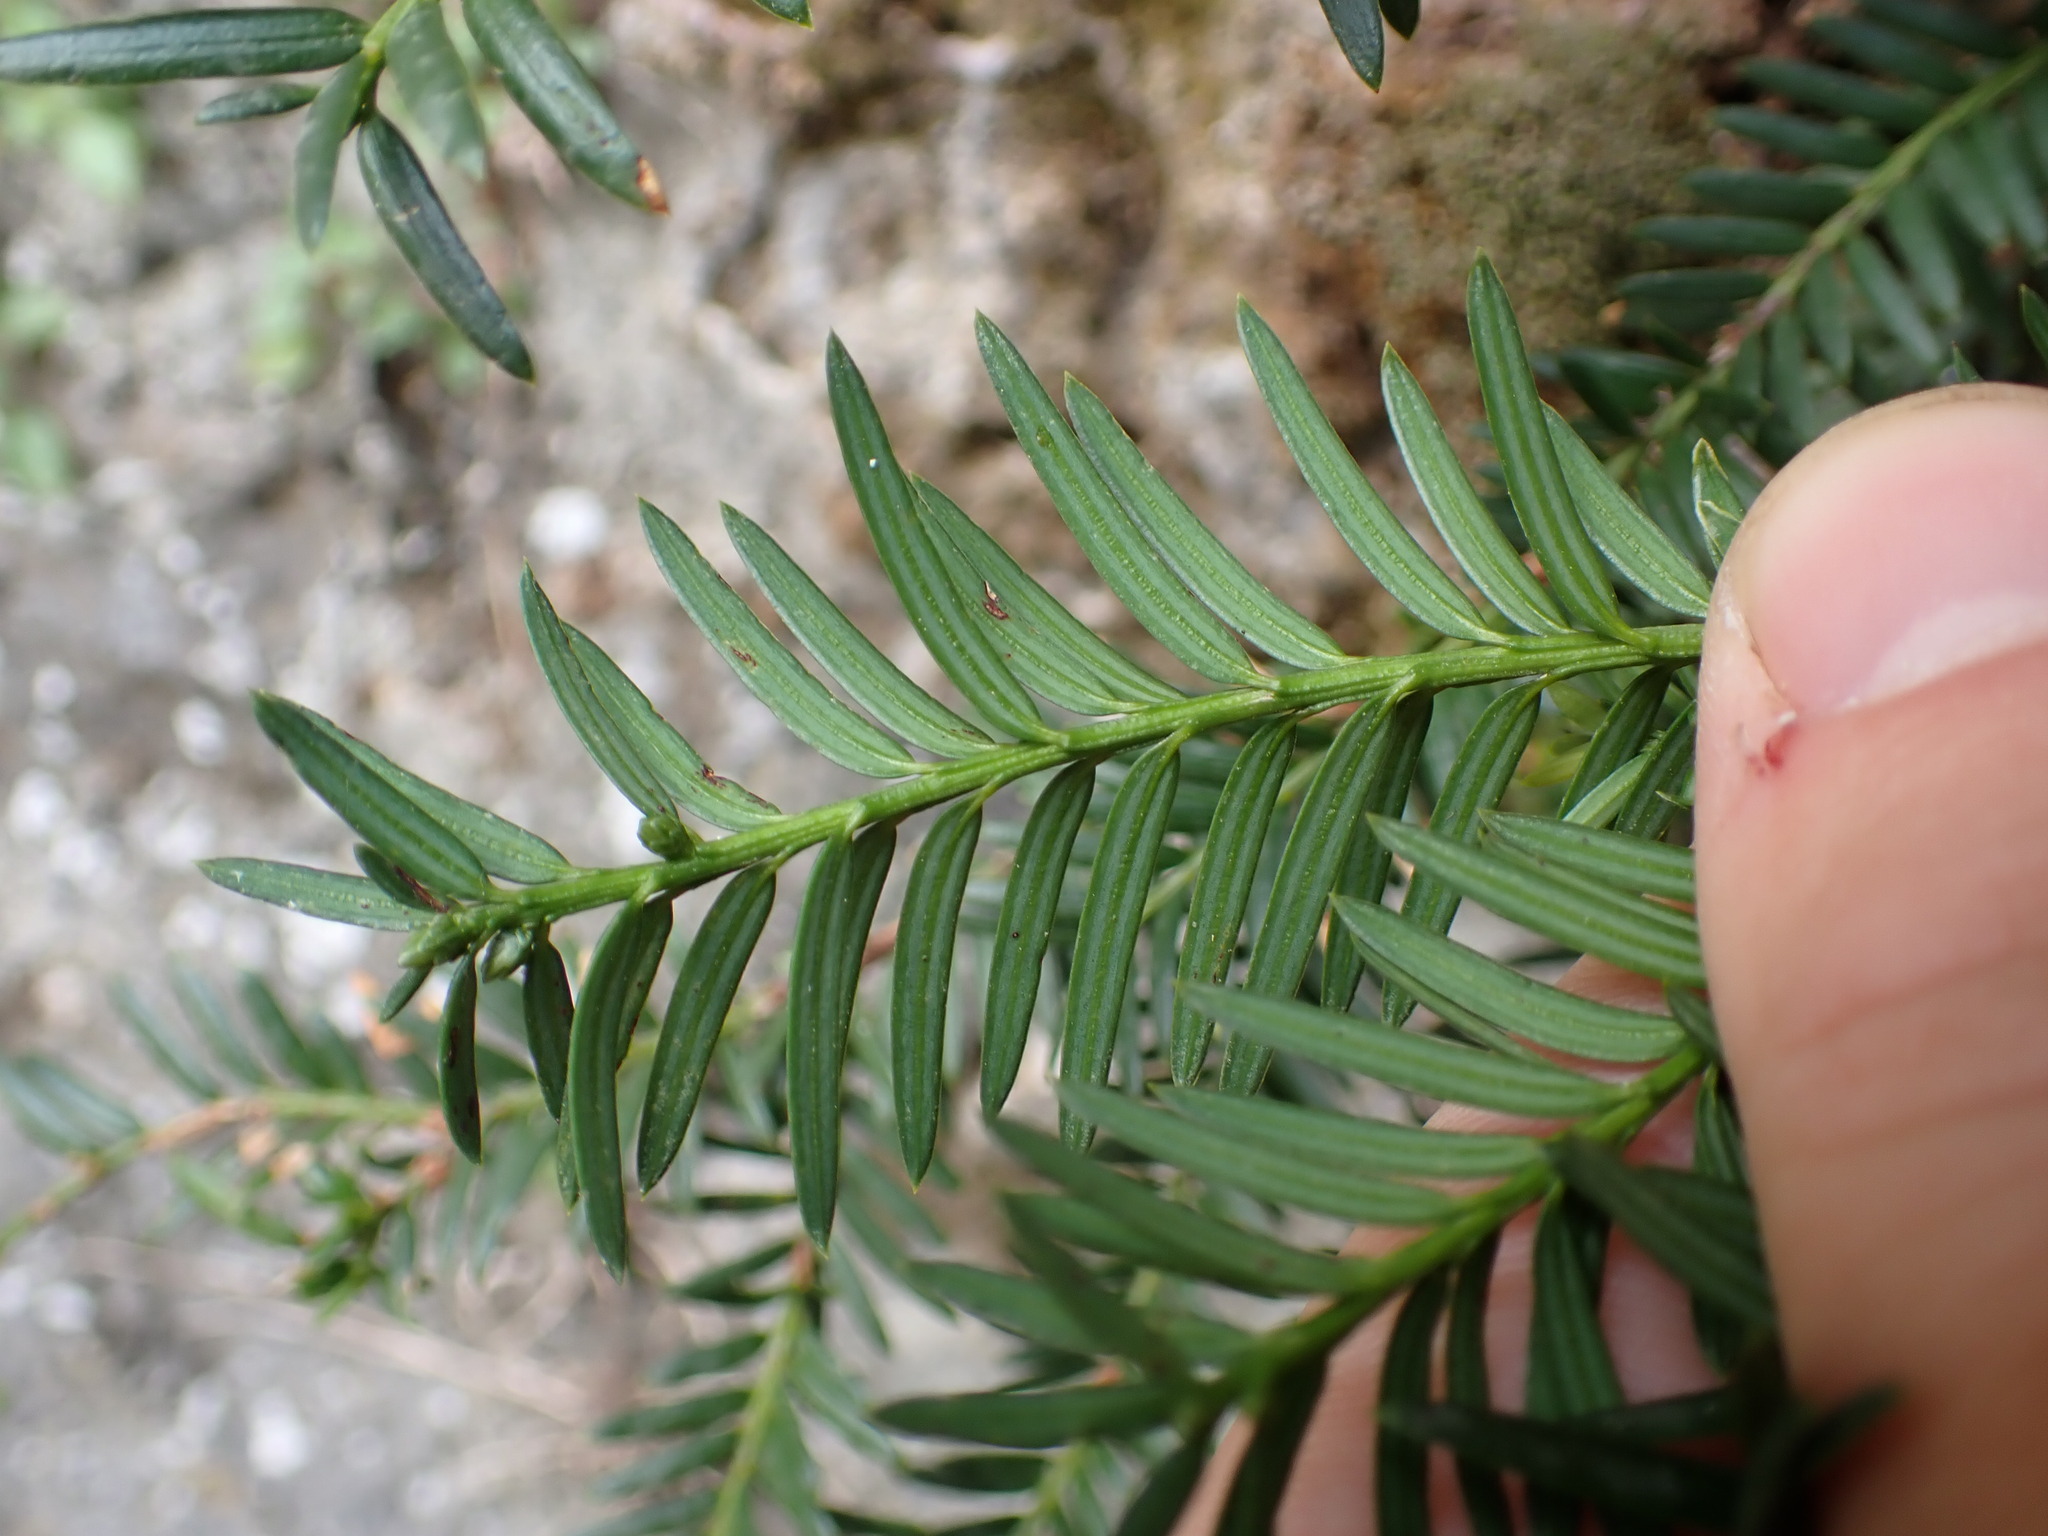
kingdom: Plantae
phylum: Tracheophyta
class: Pinopsida
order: Pinales
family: Taxaceae
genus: Taxus
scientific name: Taxus baccata
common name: Yew
